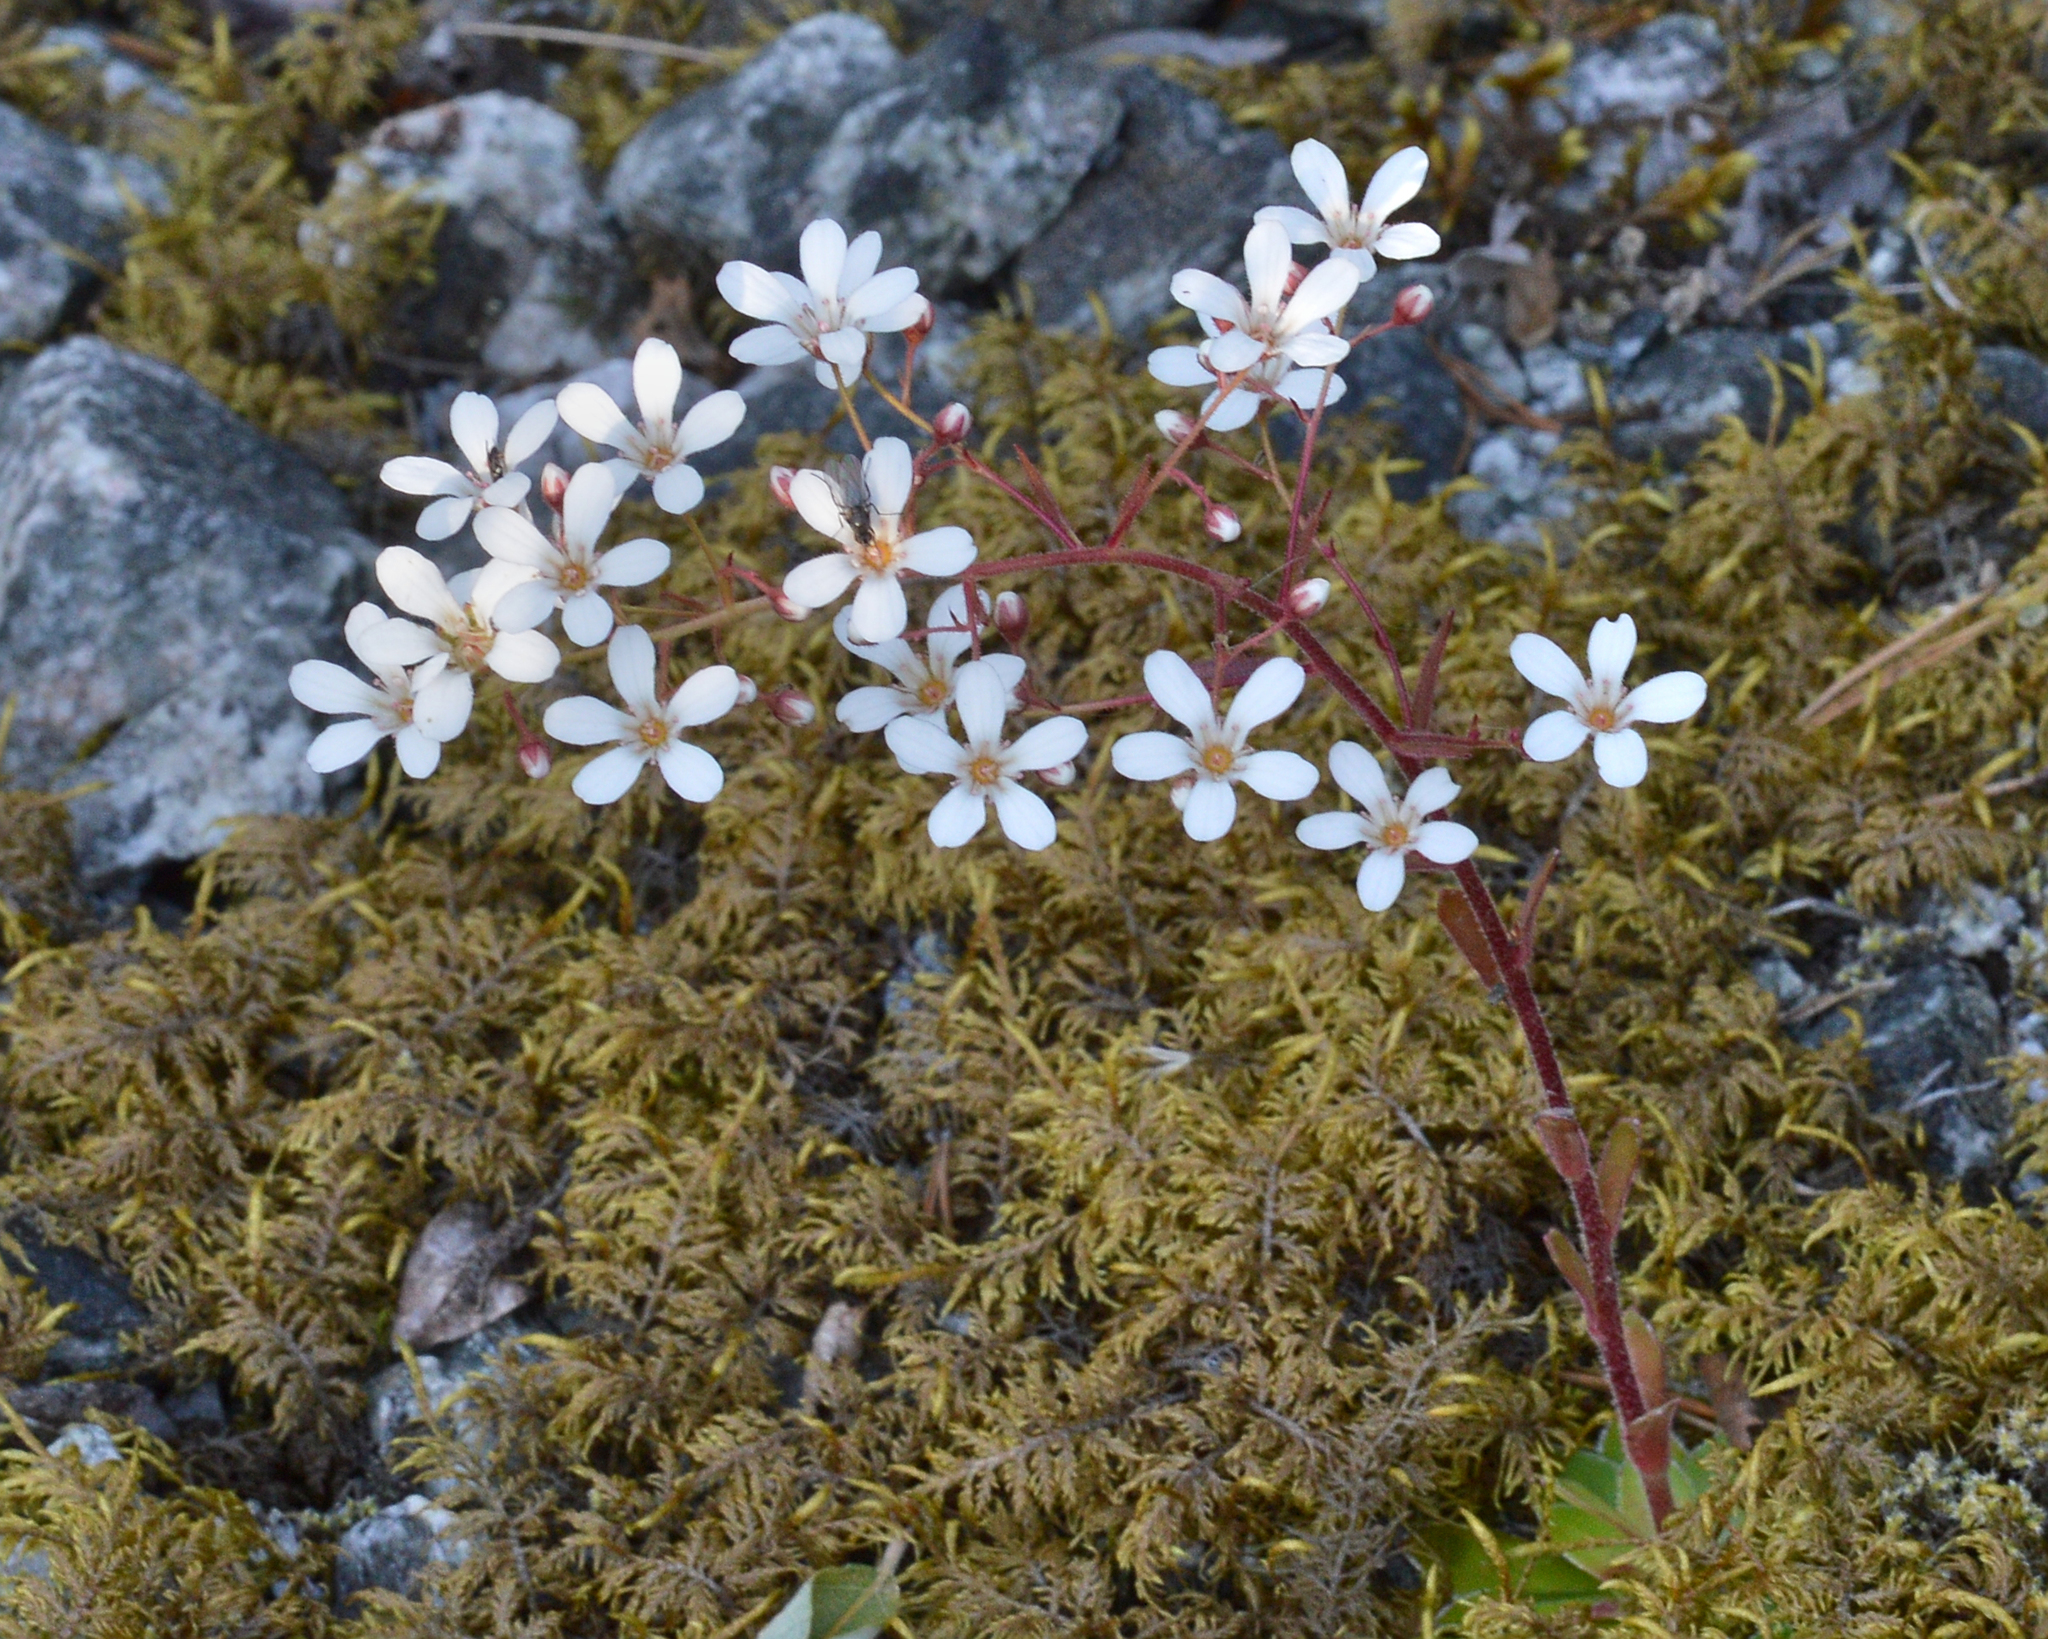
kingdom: Plantae
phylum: Tracheophyta
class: Magnoliopsida
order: Saxifragales
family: Saxifragaceae
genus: Saxifraga
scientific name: Saxifraga cotyledon
